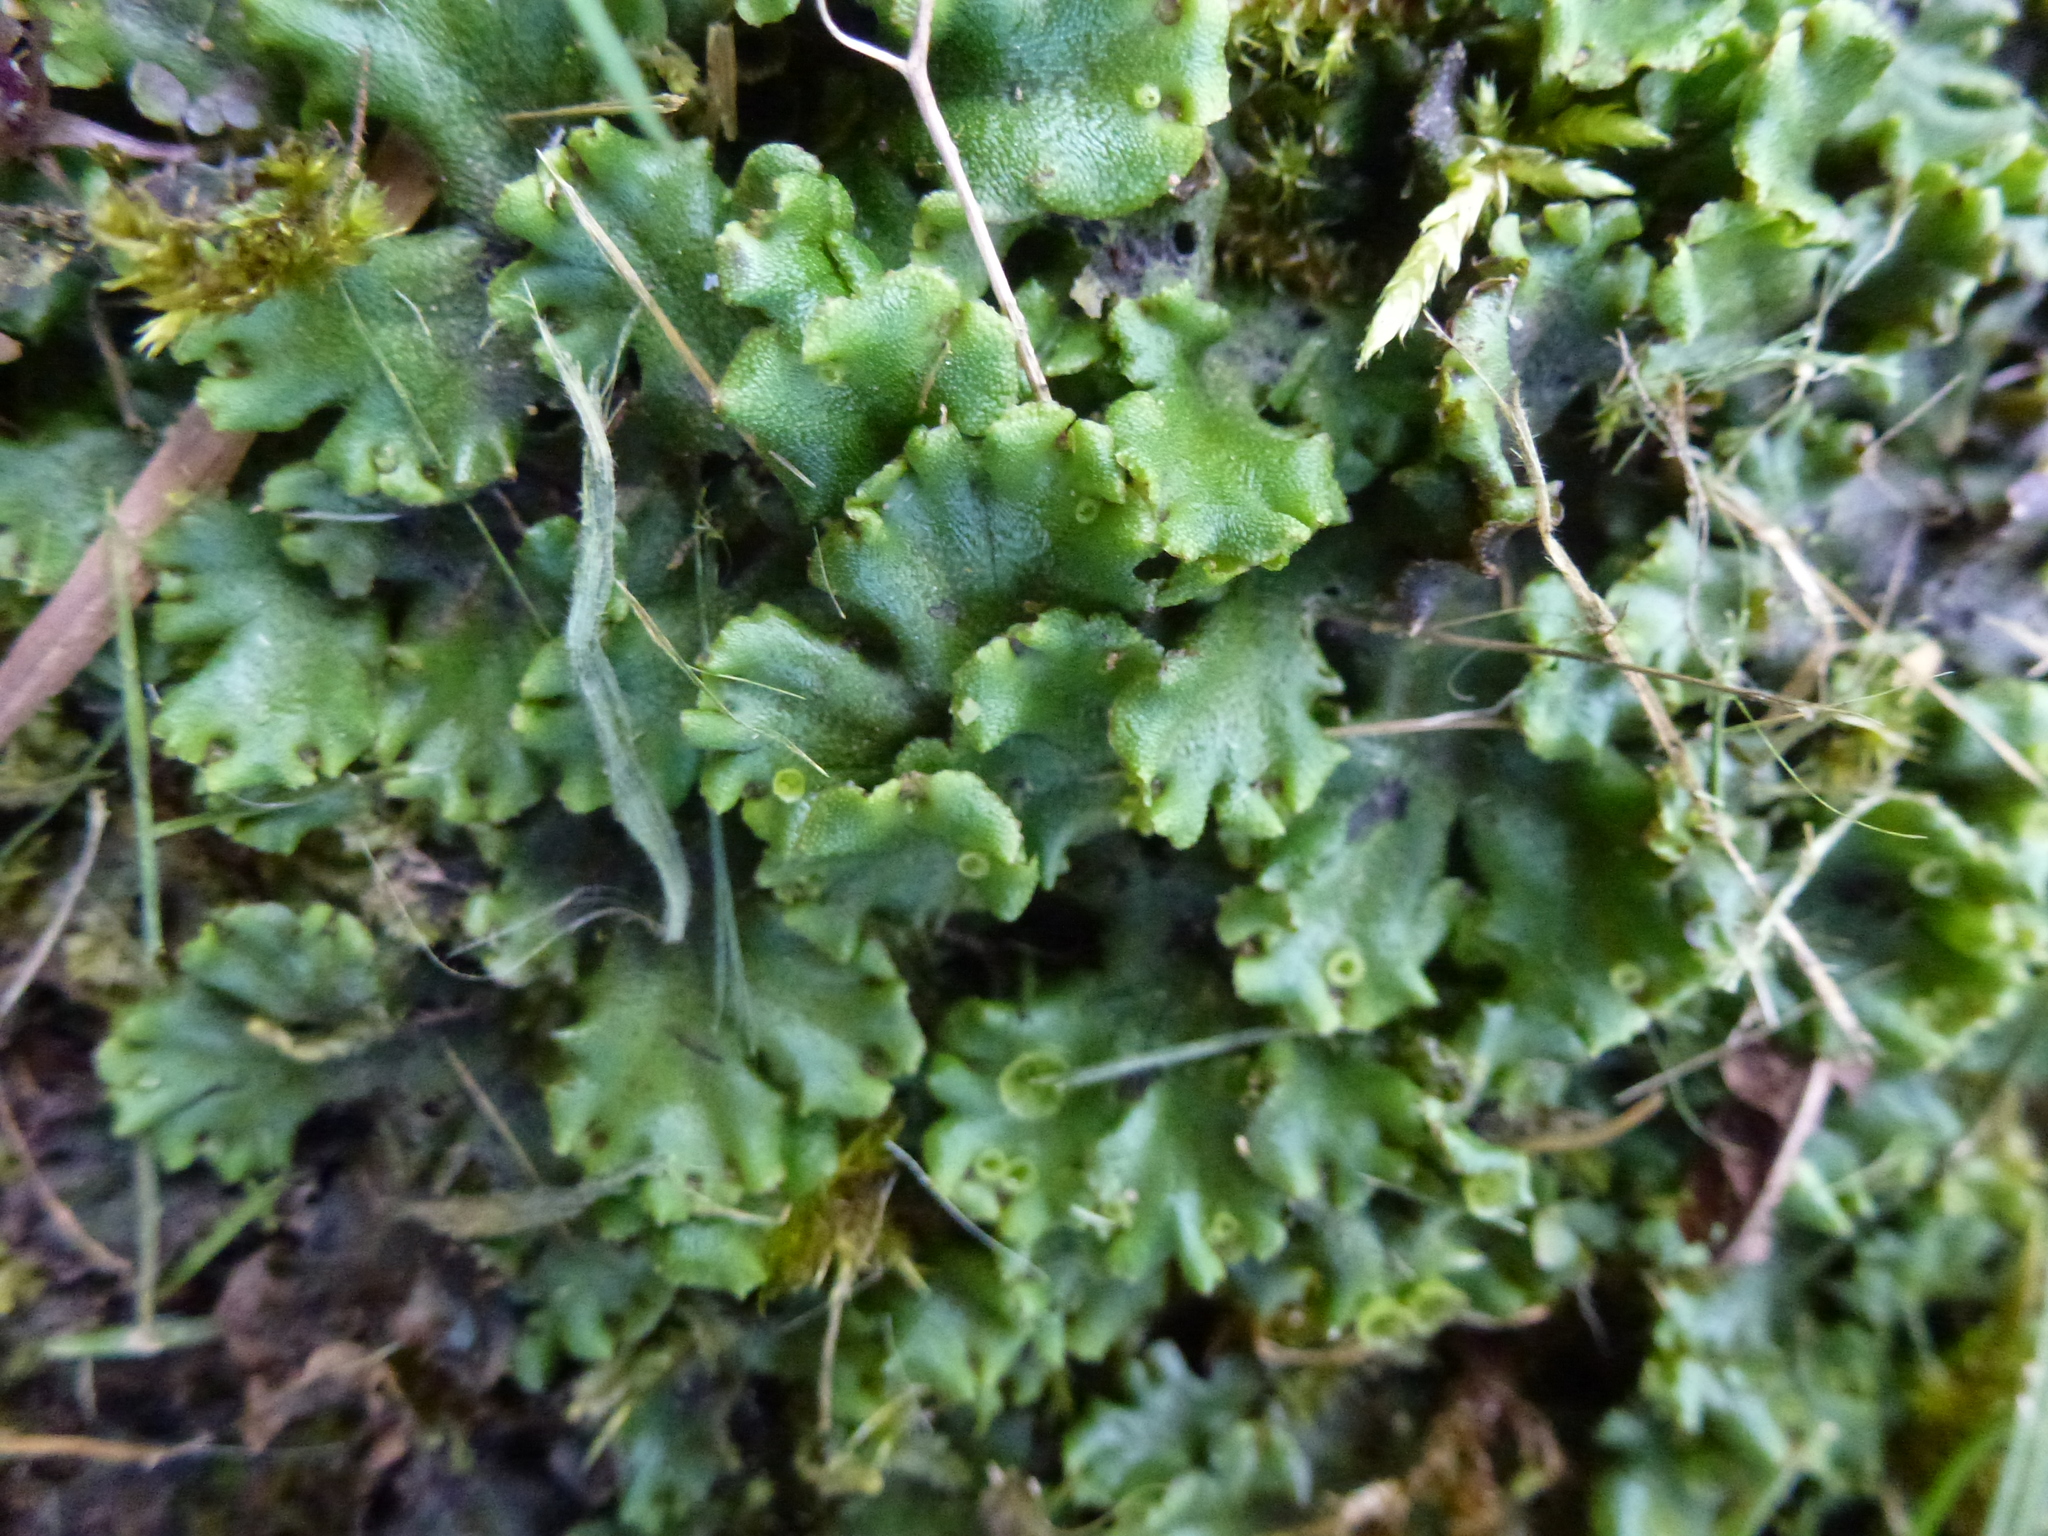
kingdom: Plantae
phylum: Marchantiophyta
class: Marchantiopsida
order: Marchantiales
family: Marchantiaceae
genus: Marchantia
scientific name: Marchantia polymorpha
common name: Common liverwort
